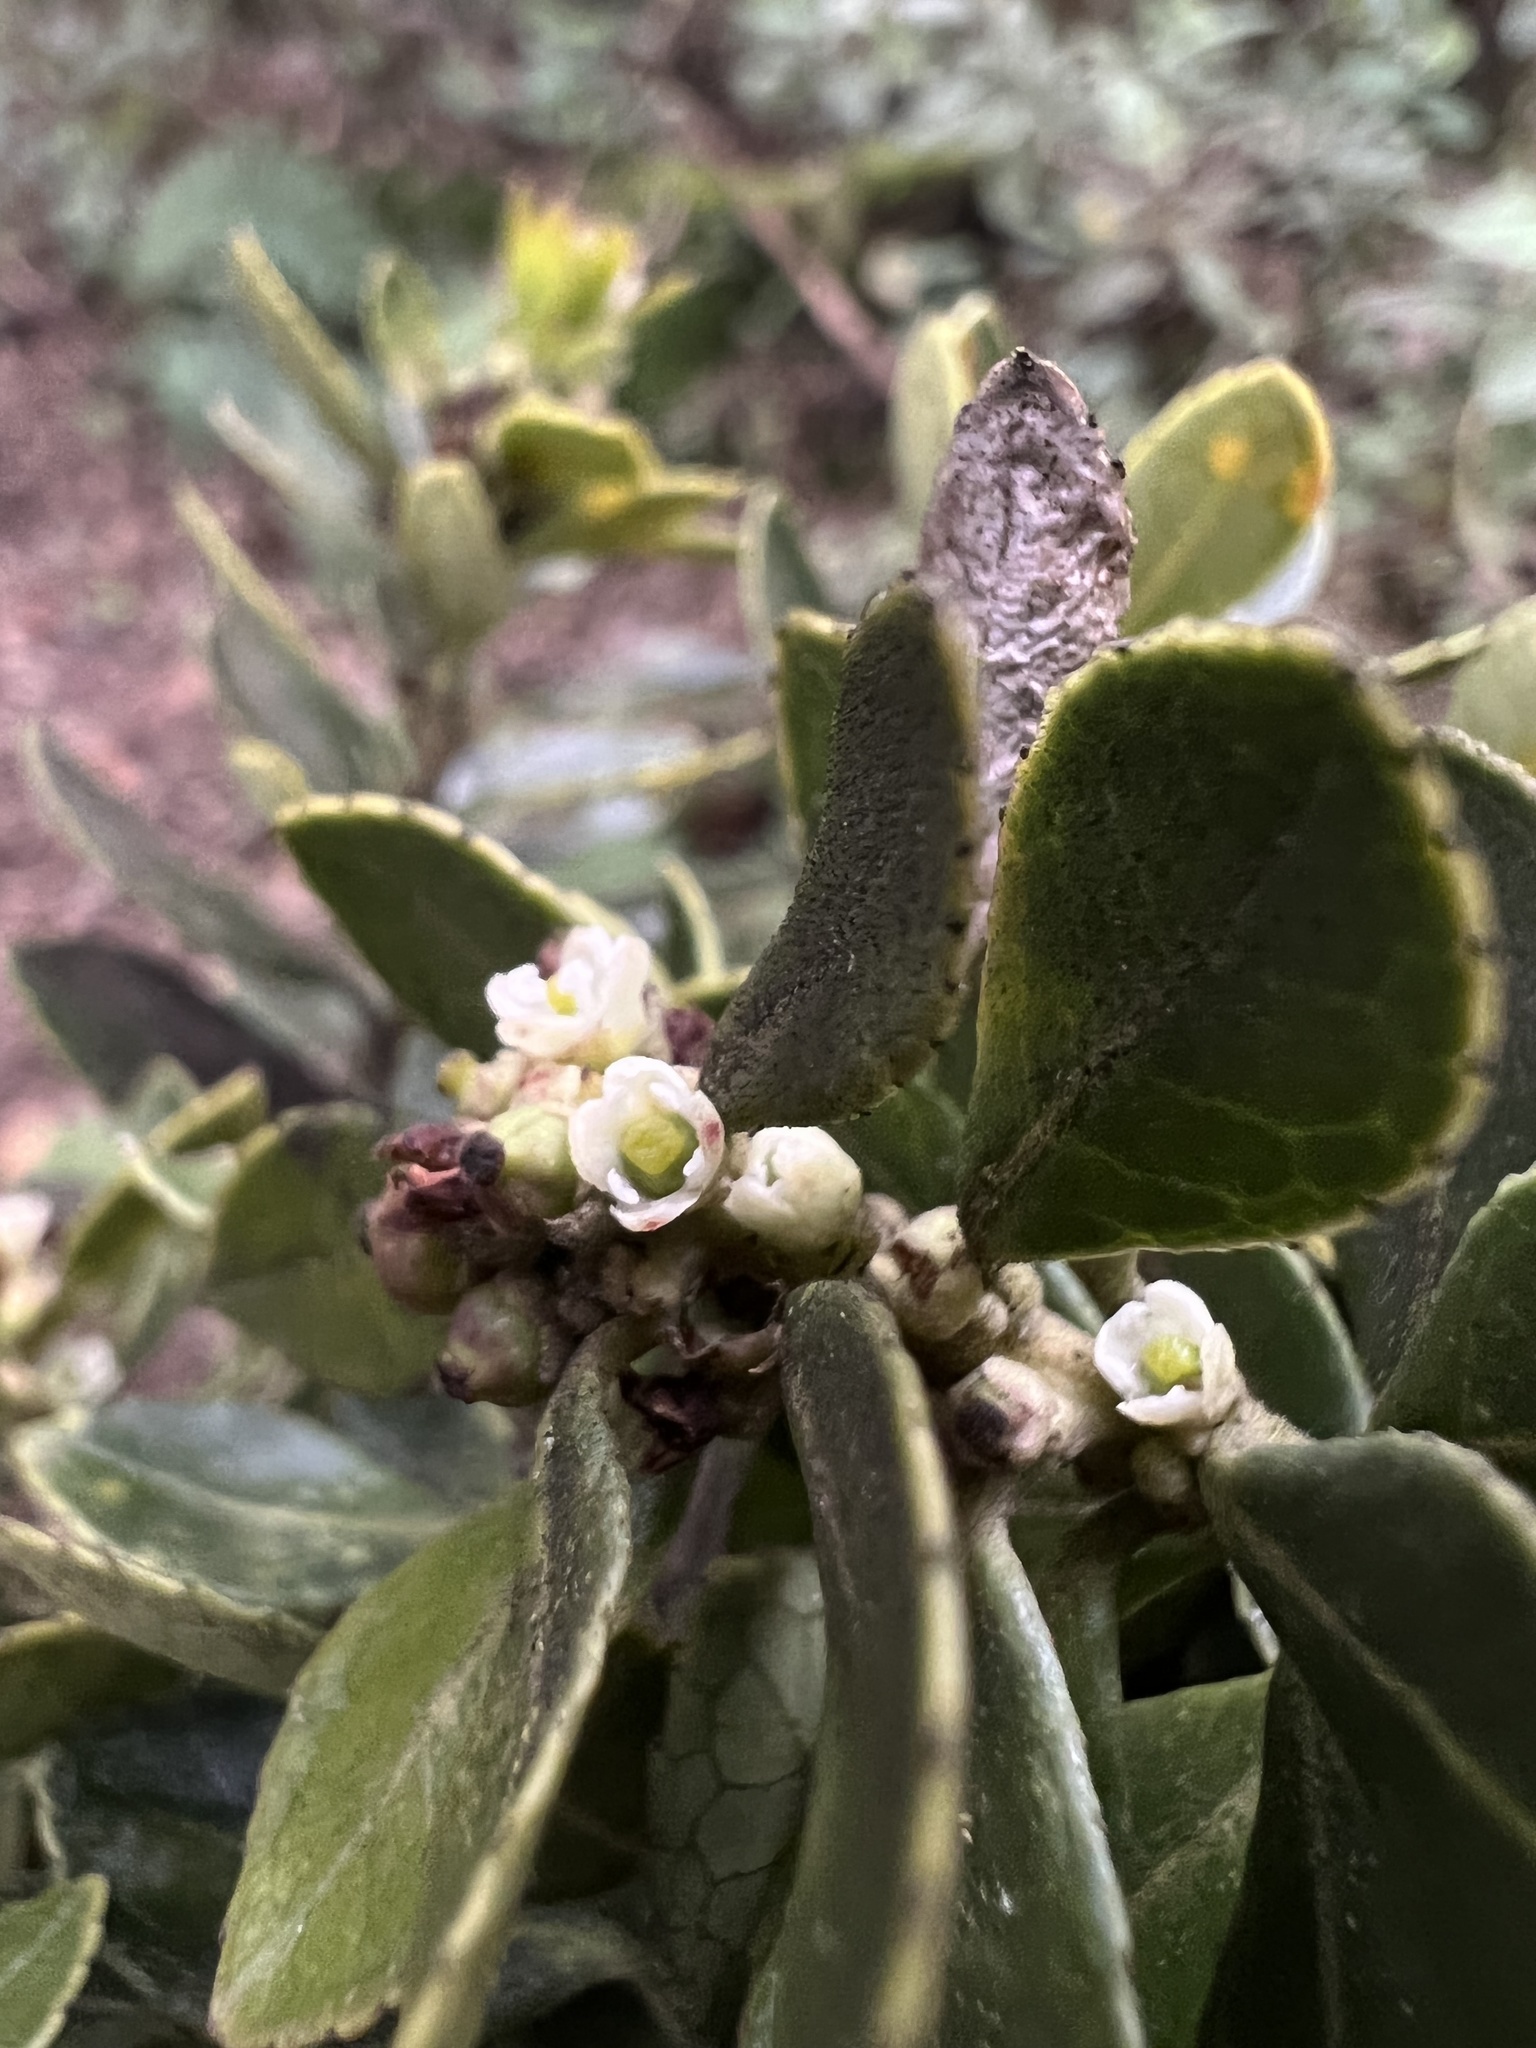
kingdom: Plantae
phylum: Tracheophyta
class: Magnoliopsida
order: Aquifoliales
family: Aquifoliaceae
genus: Ilex
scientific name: Ilex microphylla
